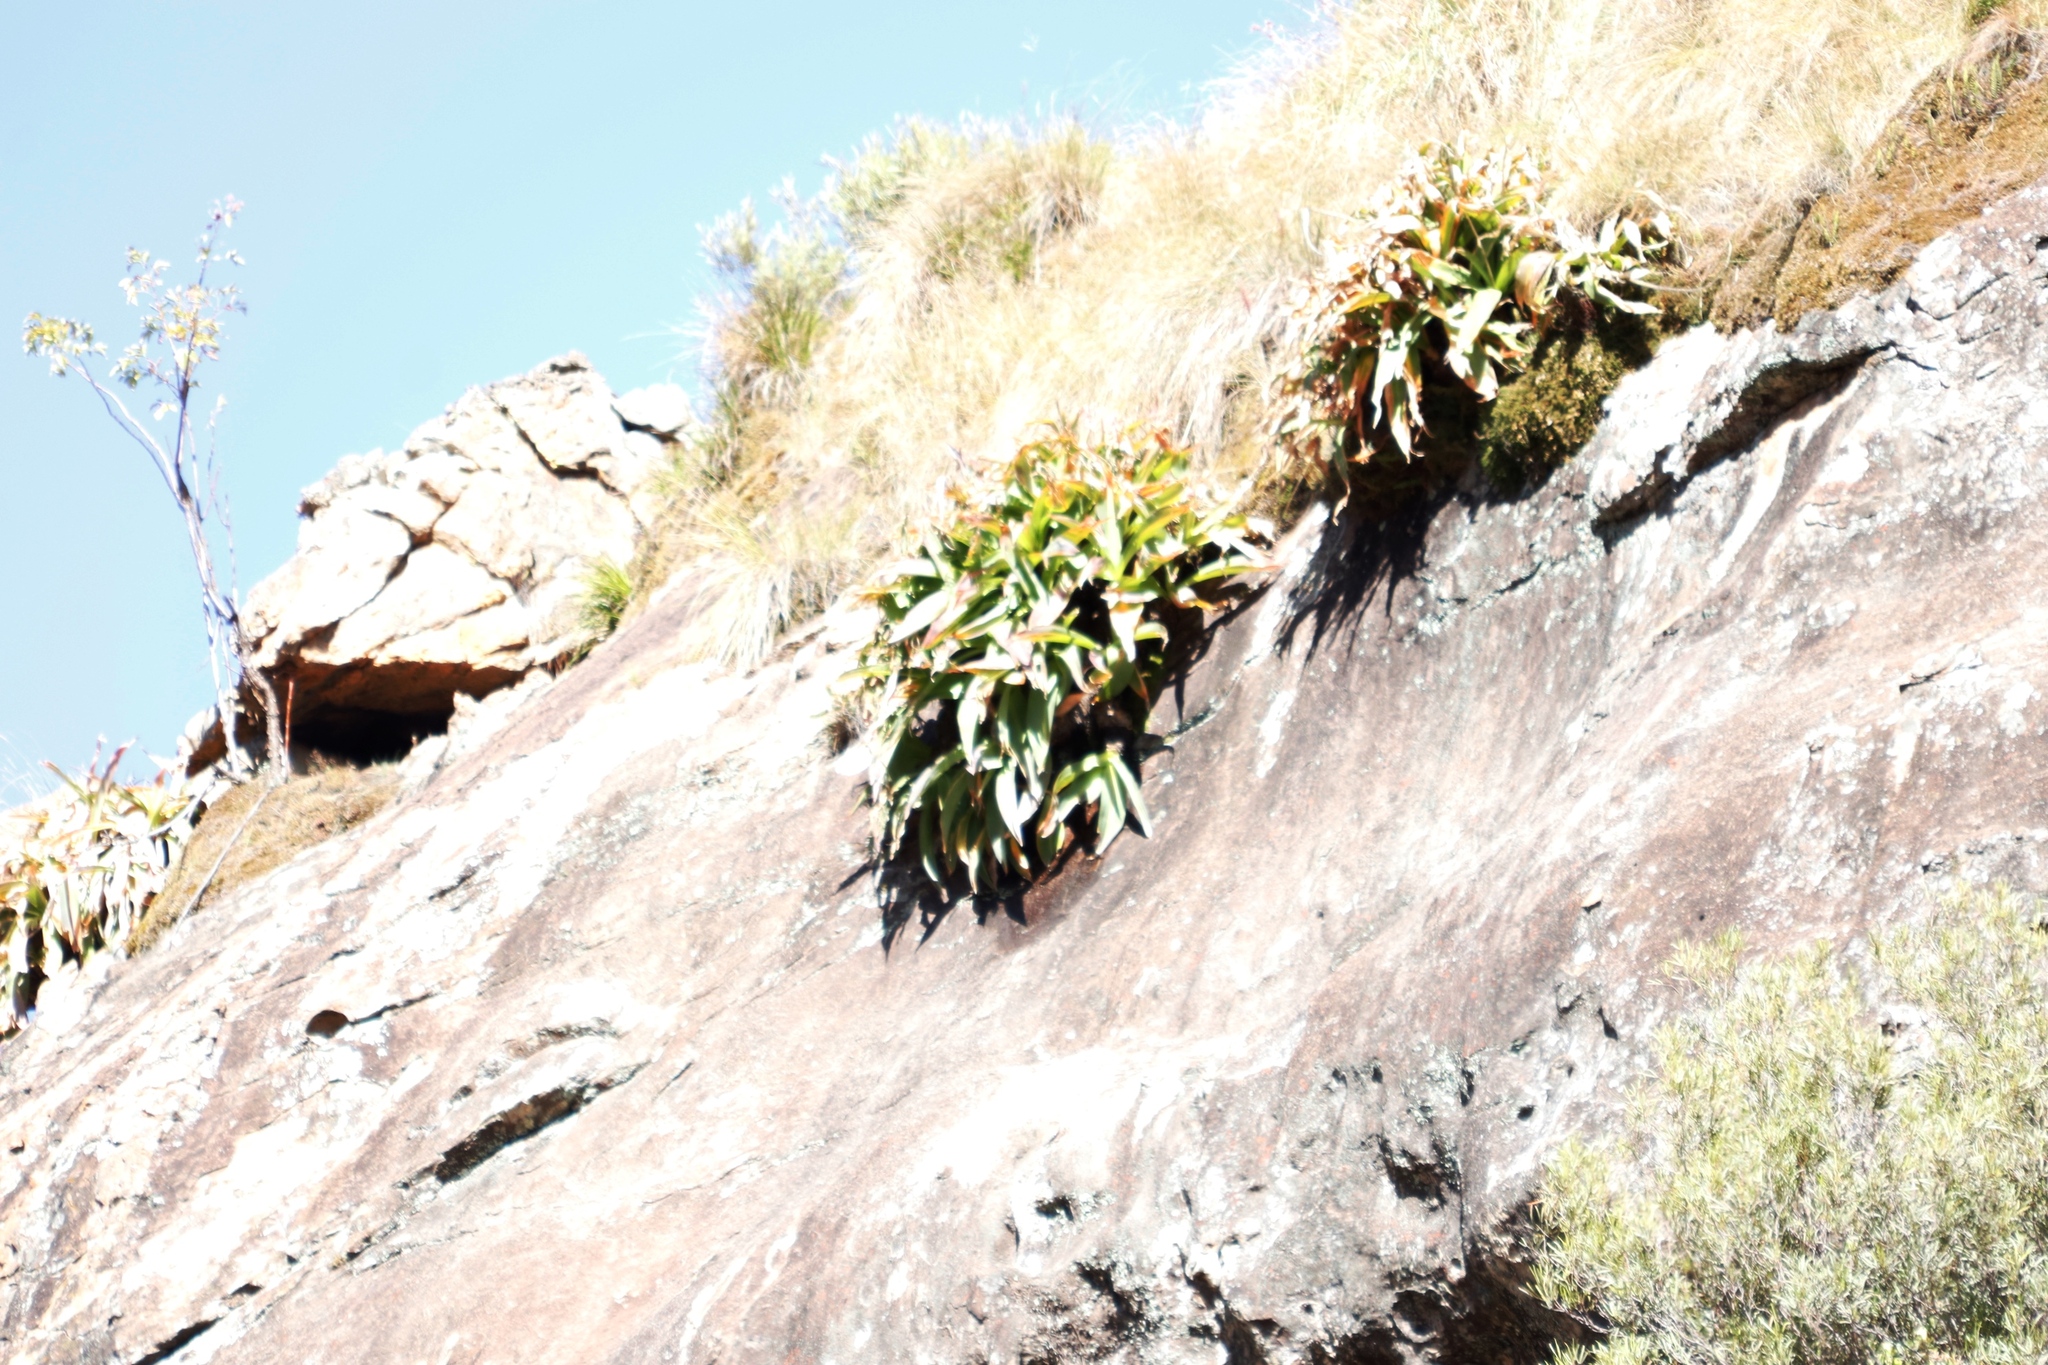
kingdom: Plantae
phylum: Tracheophyta
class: Liliopsida
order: Asparagales
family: Asparagaceae
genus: Merwilla
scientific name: Merwilla plumbea
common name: Blue-squill
